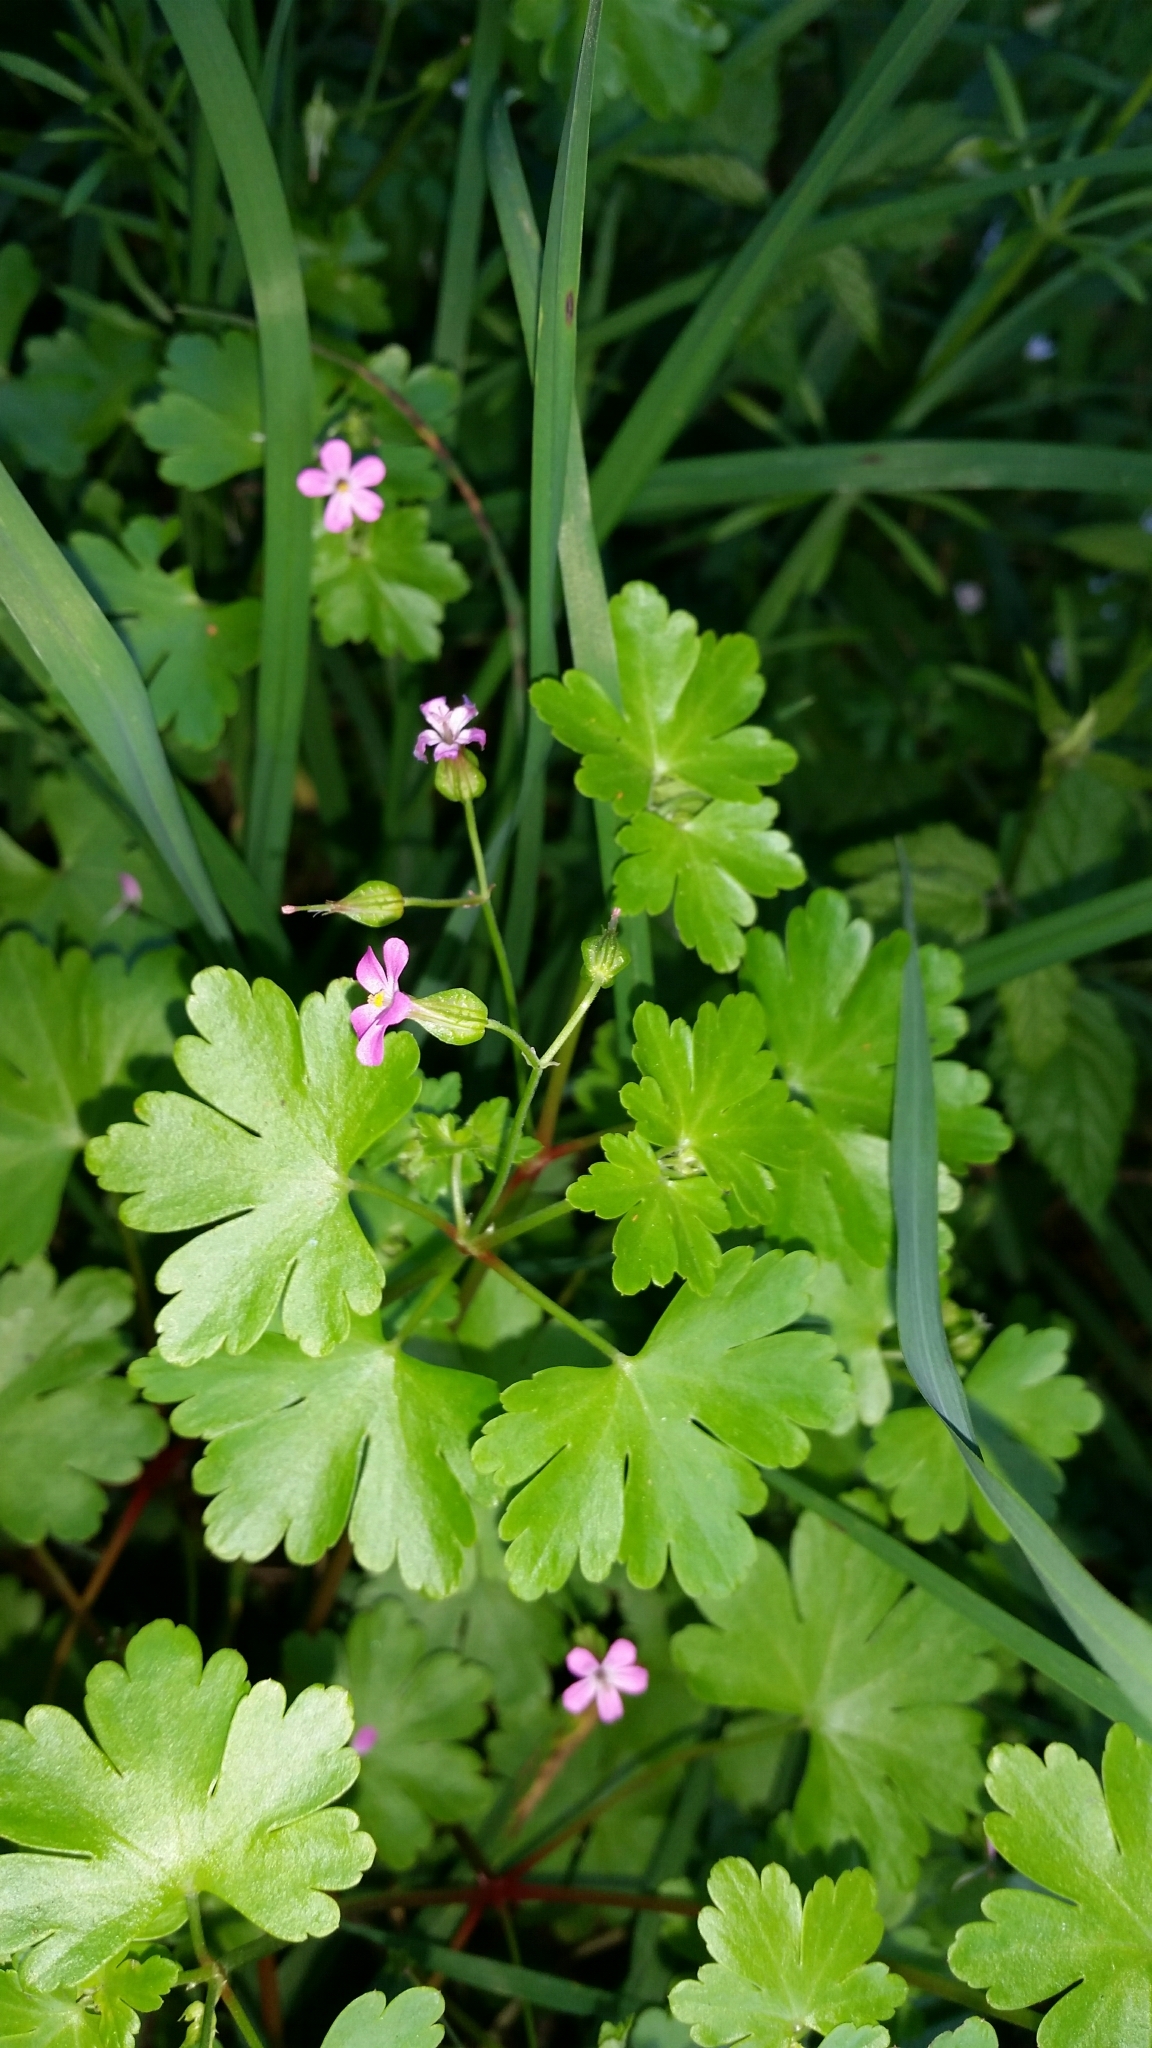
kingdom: Plantae
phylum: Tracheophyta
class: Magnoliopsida
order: Geraniales
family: Geraniaceae
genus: Geranium
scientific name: Geranium lucidum
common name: Shining crane's-bill
